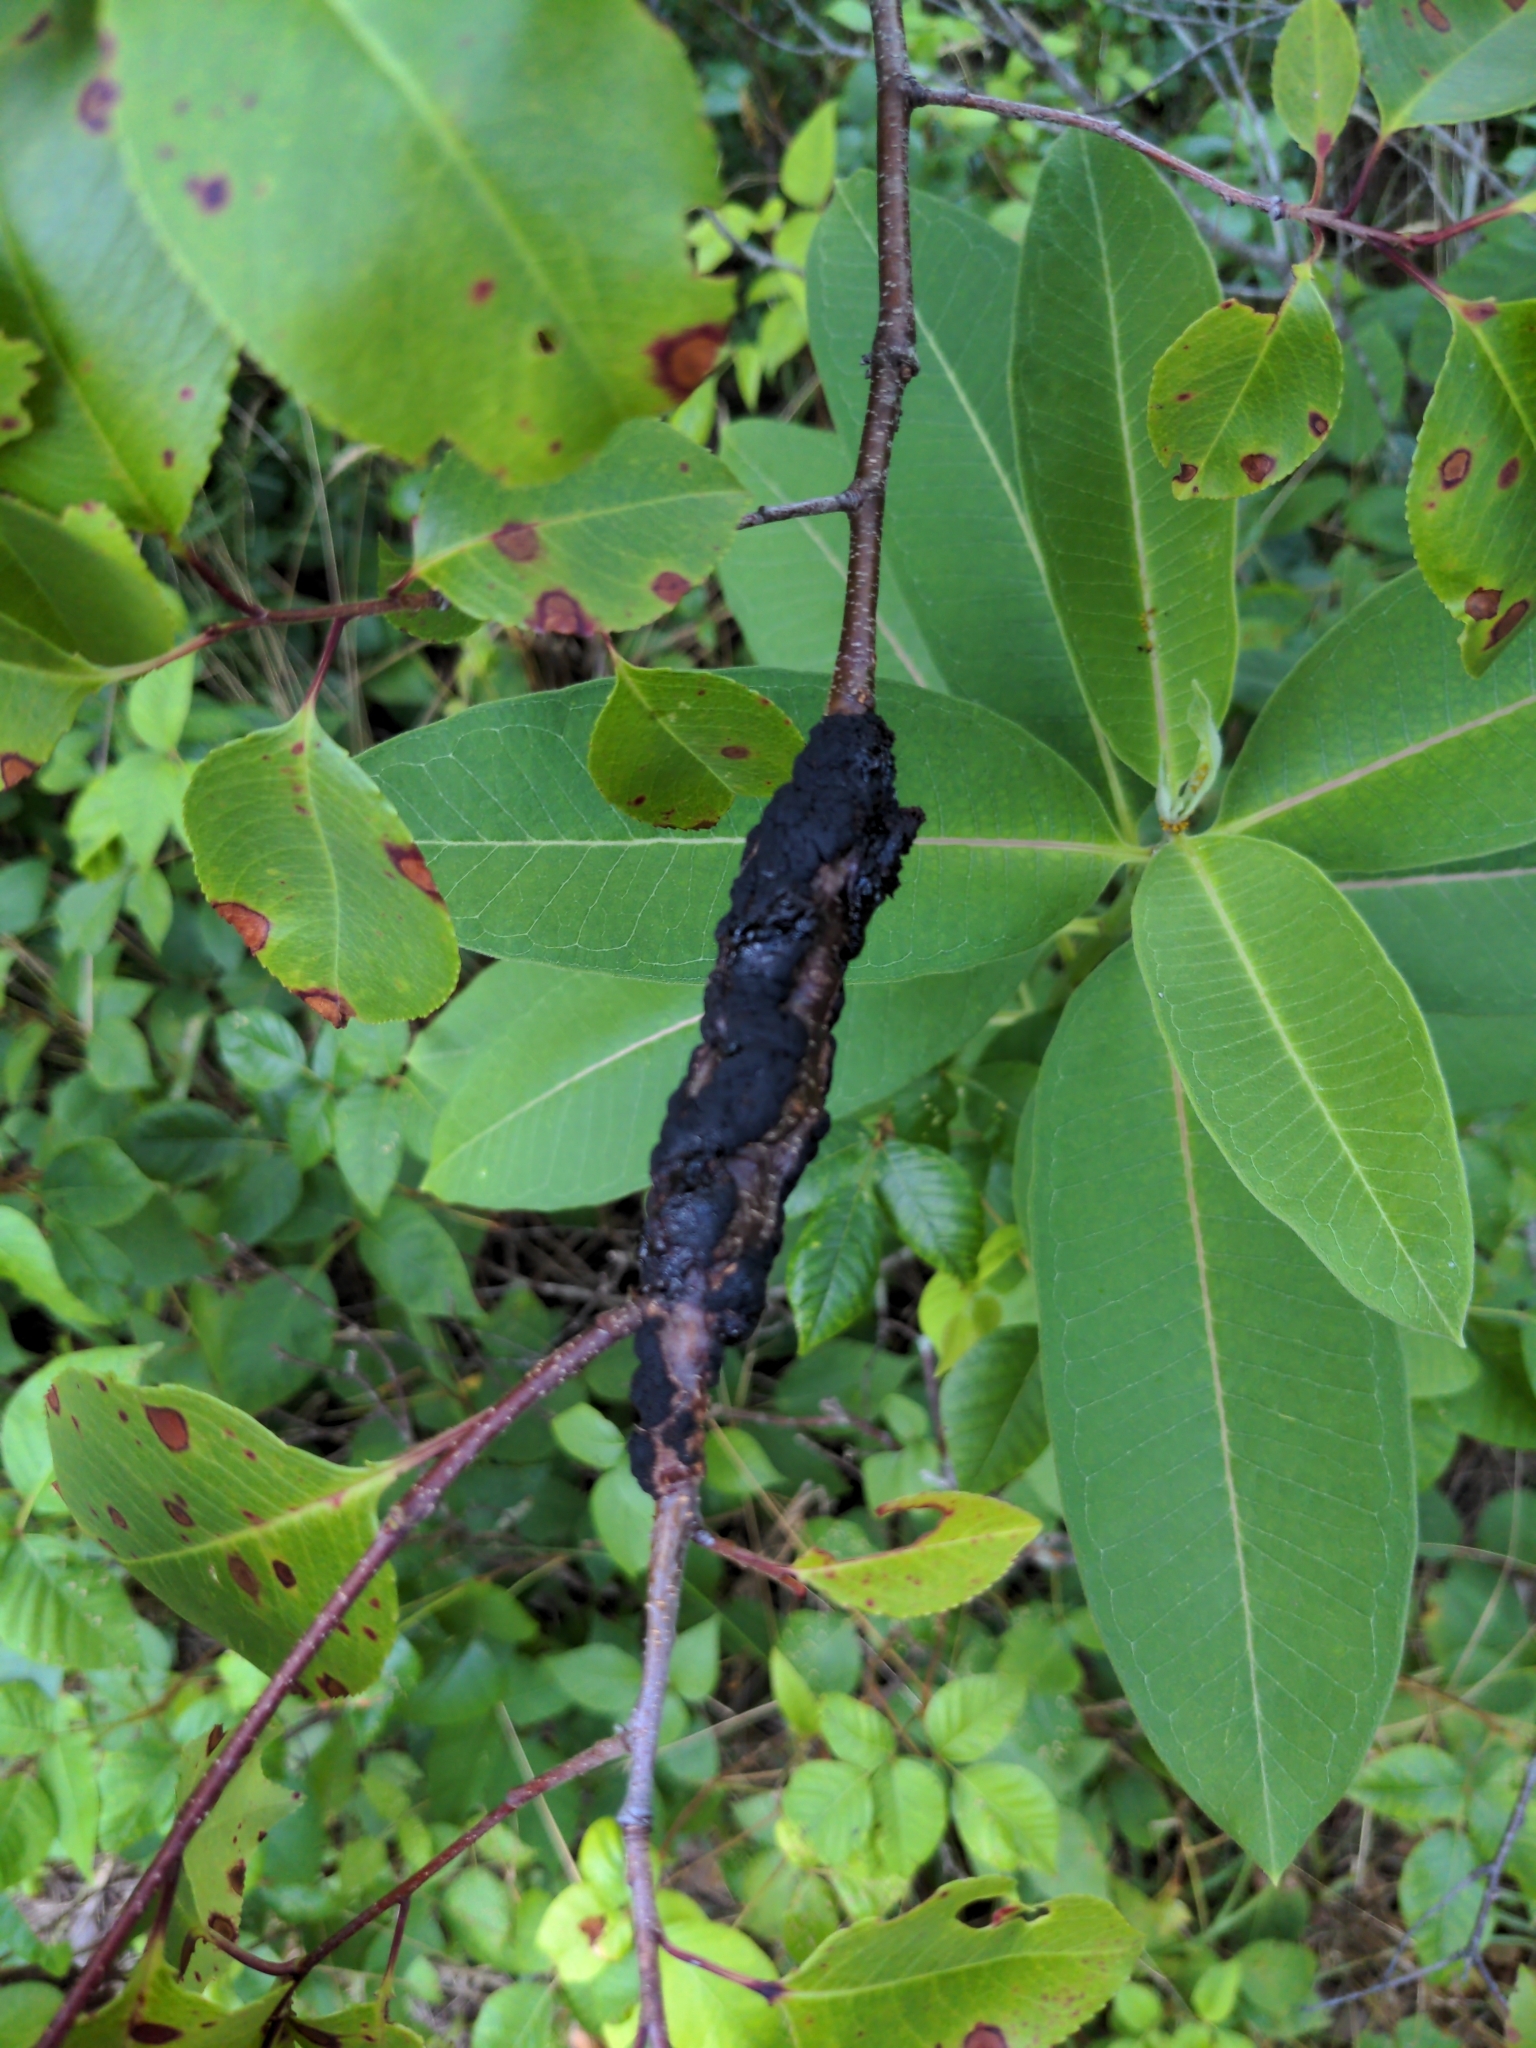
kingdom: Fungi
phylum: Ascomycota
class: Dothideomycetes
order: Venturiales
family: Venturiaceae
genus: Apiosporina
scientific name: Apiosporina morbosa
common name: Black knot
